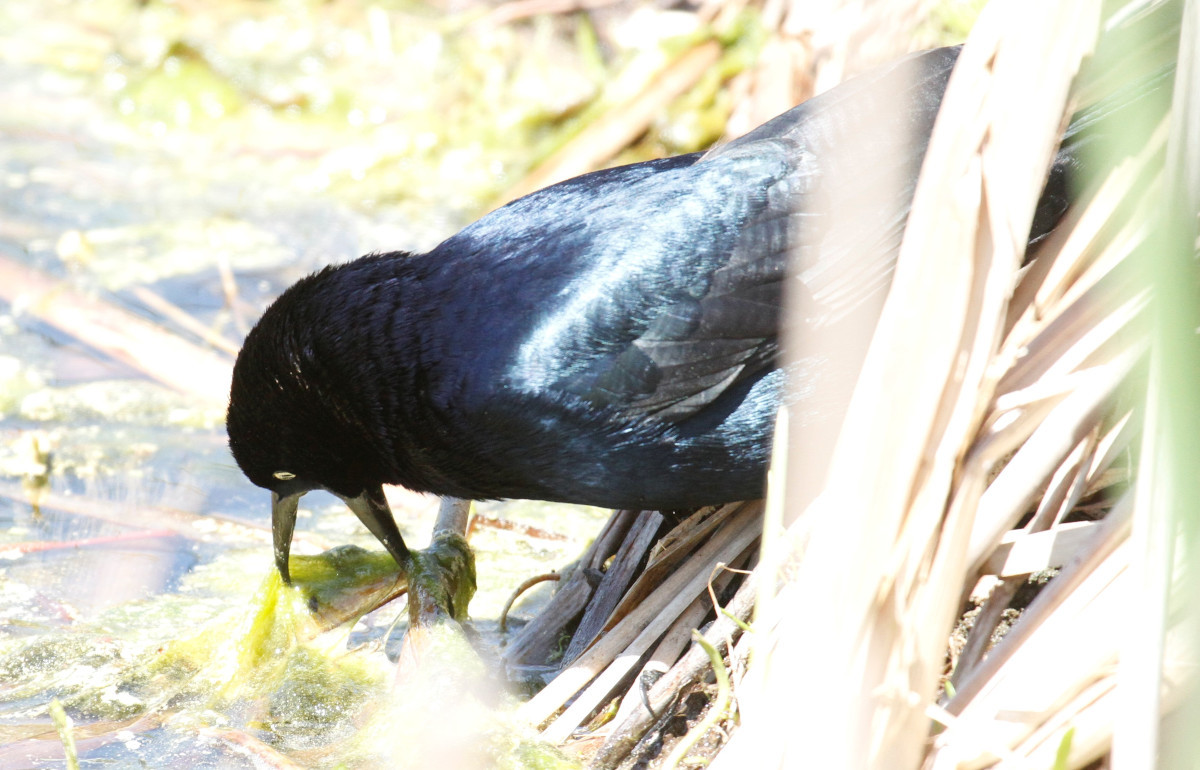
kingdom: Animalia
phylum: Chordata
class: Aves
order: Passeriformes
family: Icteridae
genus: Quiscalus
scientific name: Quiscalus major
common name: Boat-tailed grackle
